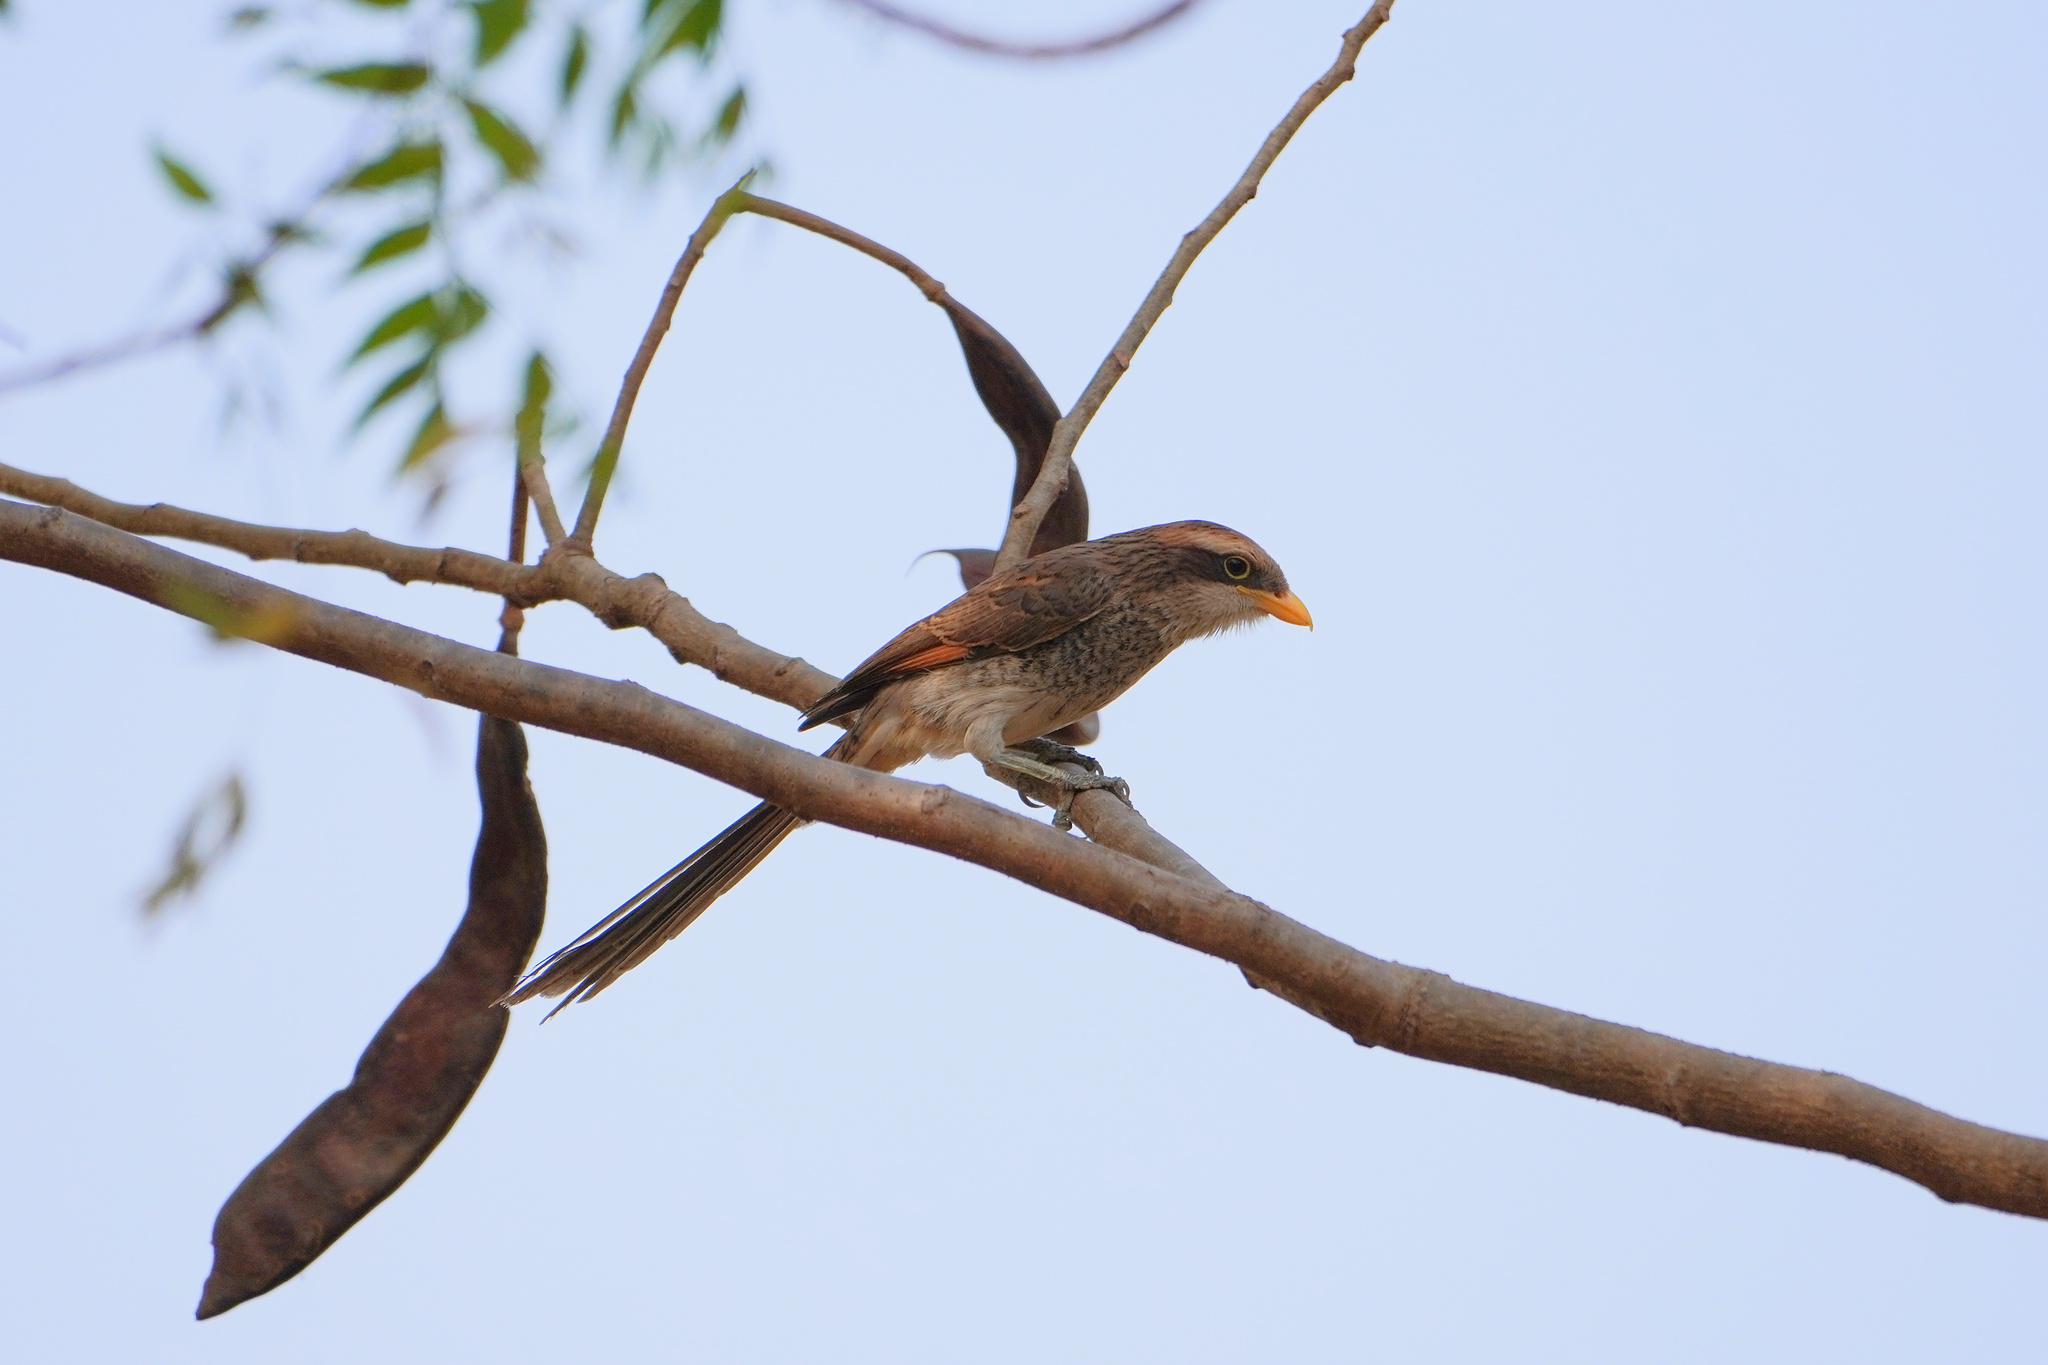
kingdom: Animalia
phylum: Chordata
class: Aves
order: Passeriformes
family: Laniidae
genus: Corvinella
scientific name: Corvinella corvina
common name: Yellow-billed shrike
